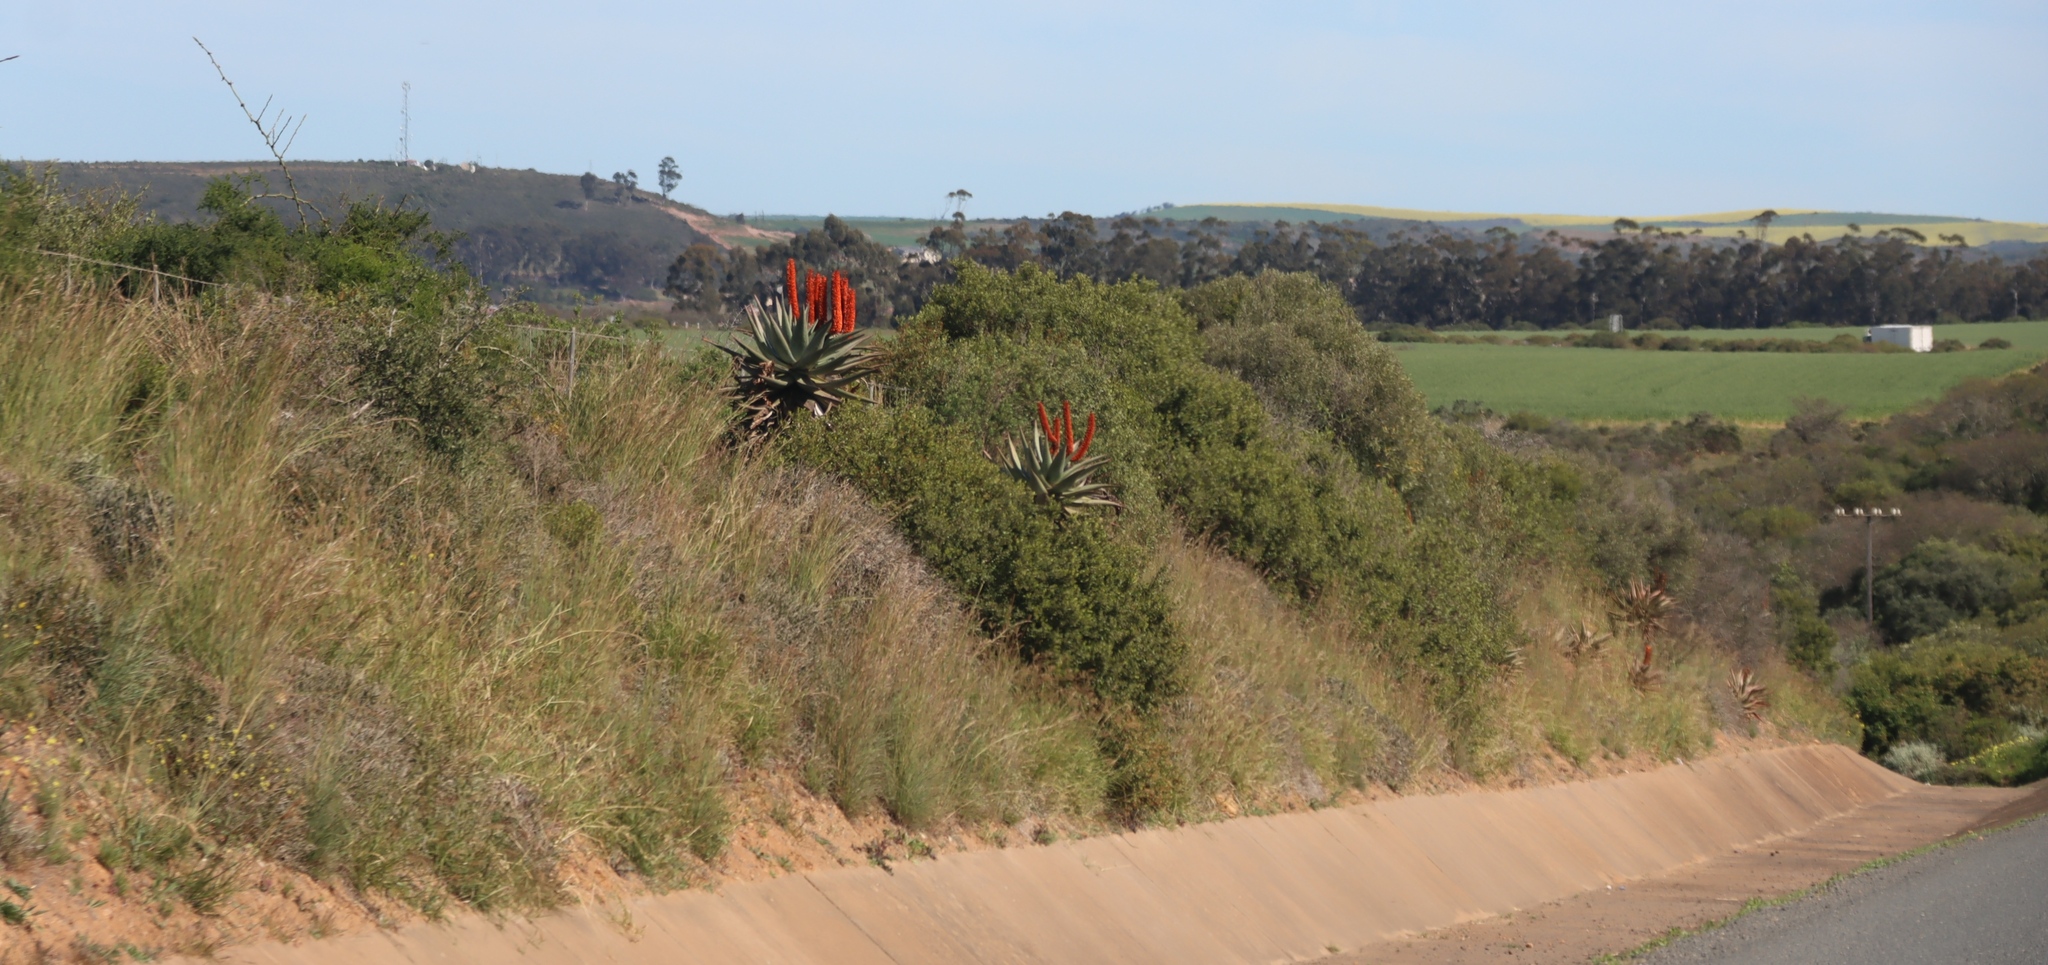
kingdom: Plantae
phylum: Tracheophyta
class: Liliopsida
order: Asparagales
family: Asphodelaceae
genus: Aloe
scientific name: Aloe ferox
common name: Bitter aloe
